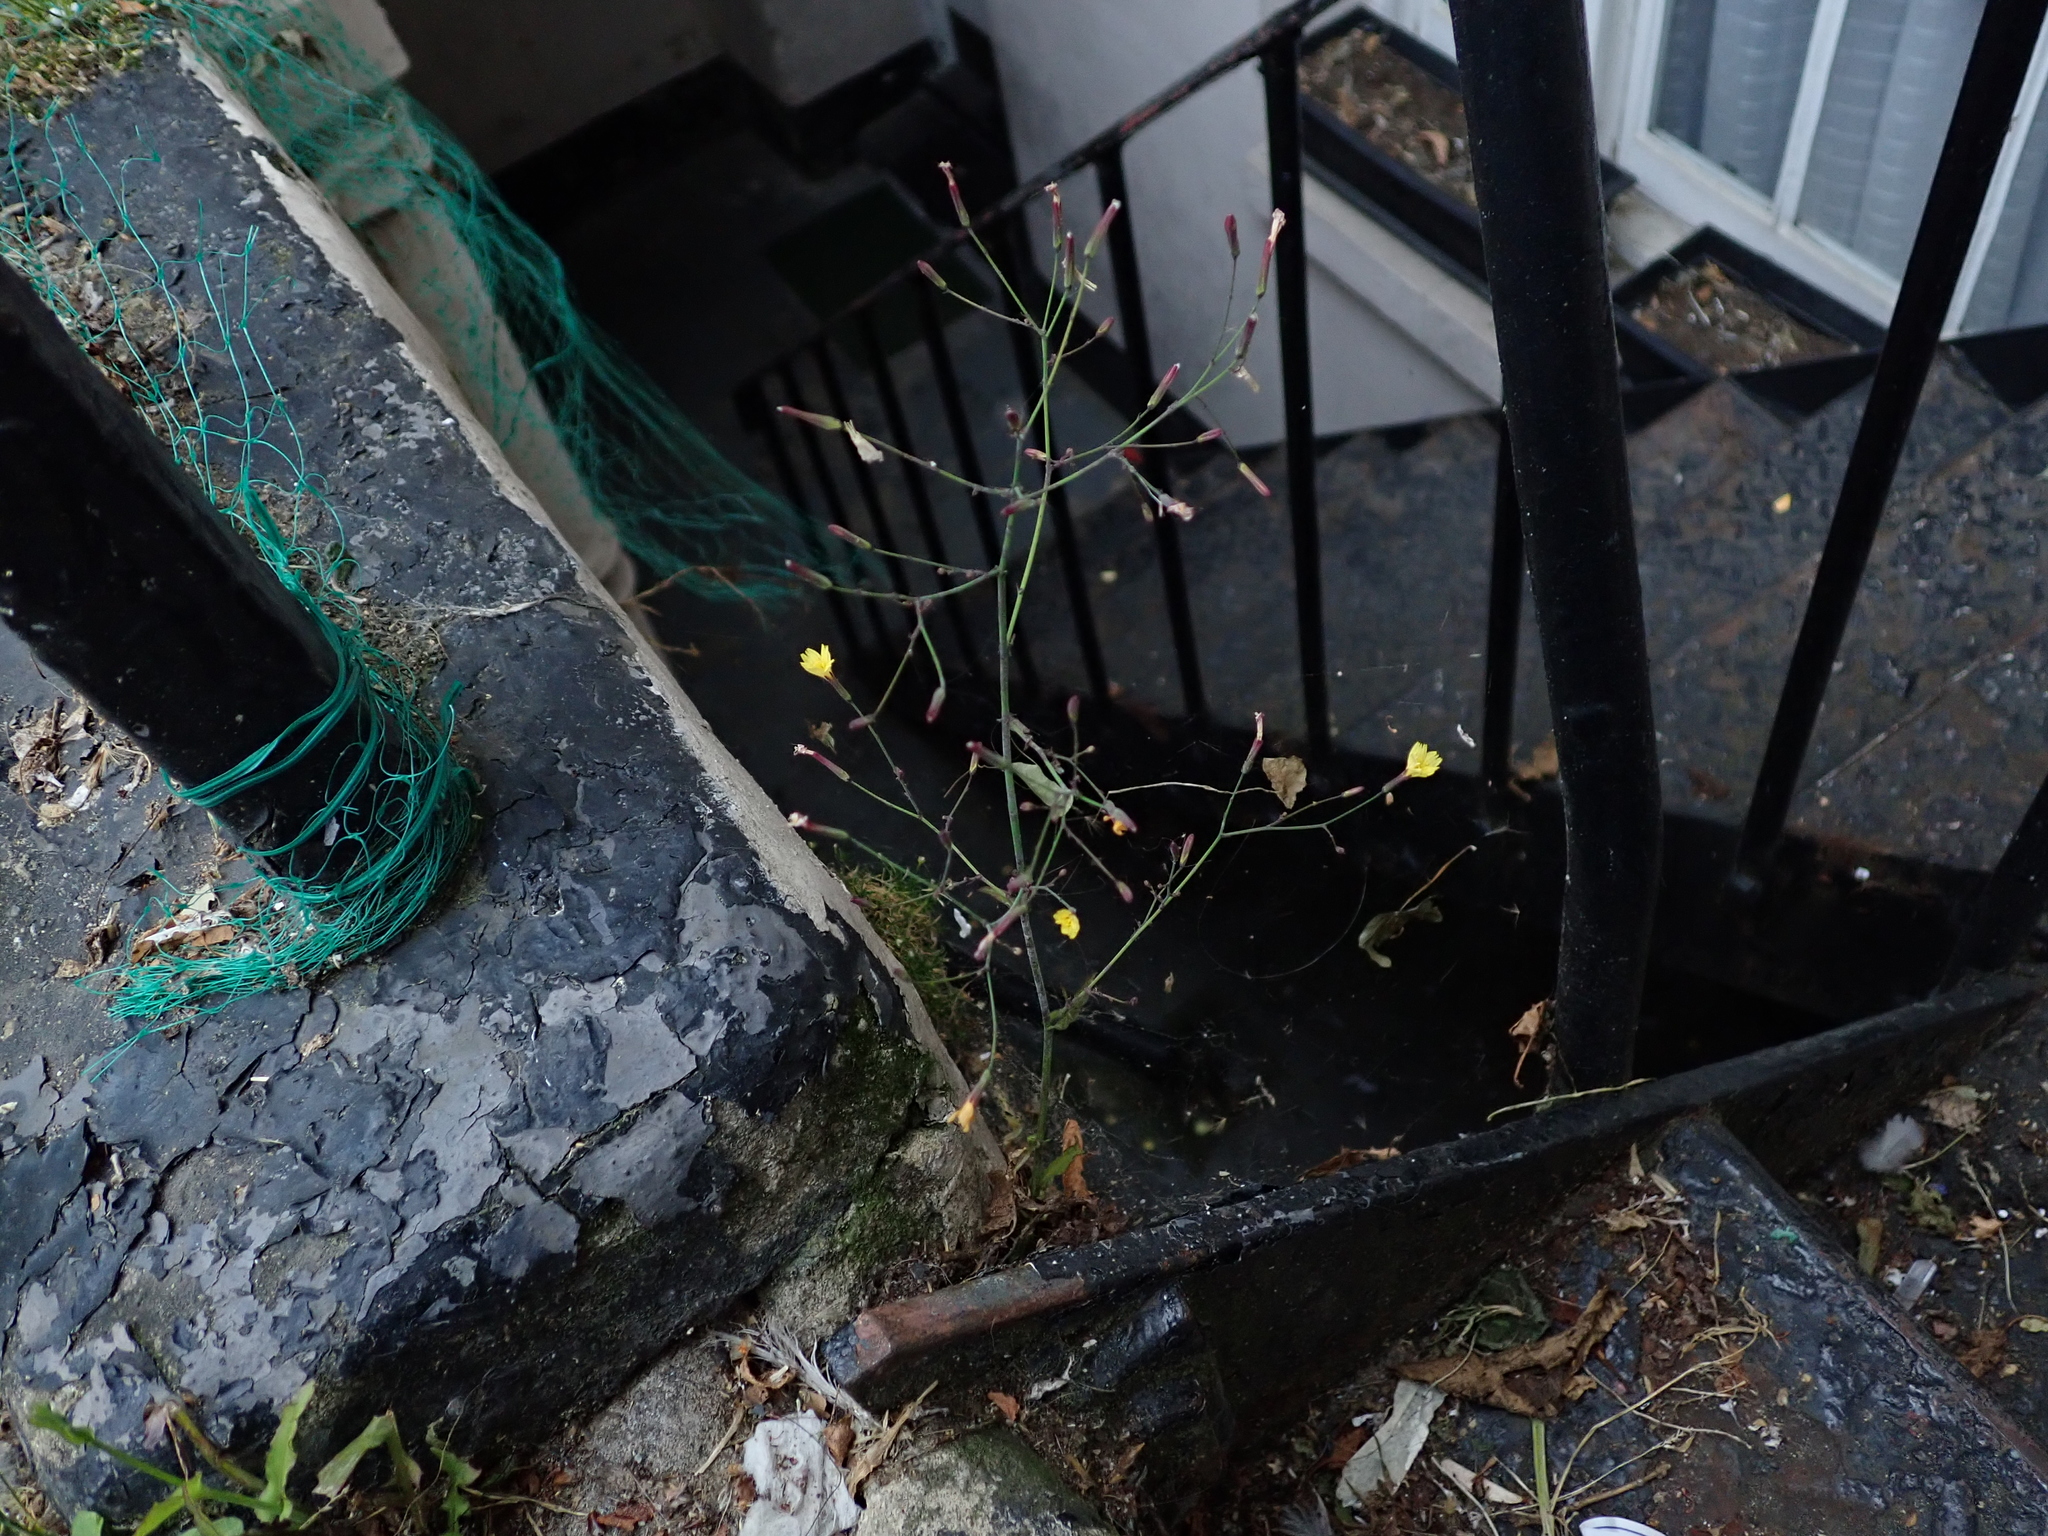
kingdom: Plantae
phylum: Tracheophyta
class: Magnoliopsida
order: Asterales
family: Asteraceae
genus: Mycelis
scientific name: Mycelis muralis
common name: Wall lettuce
